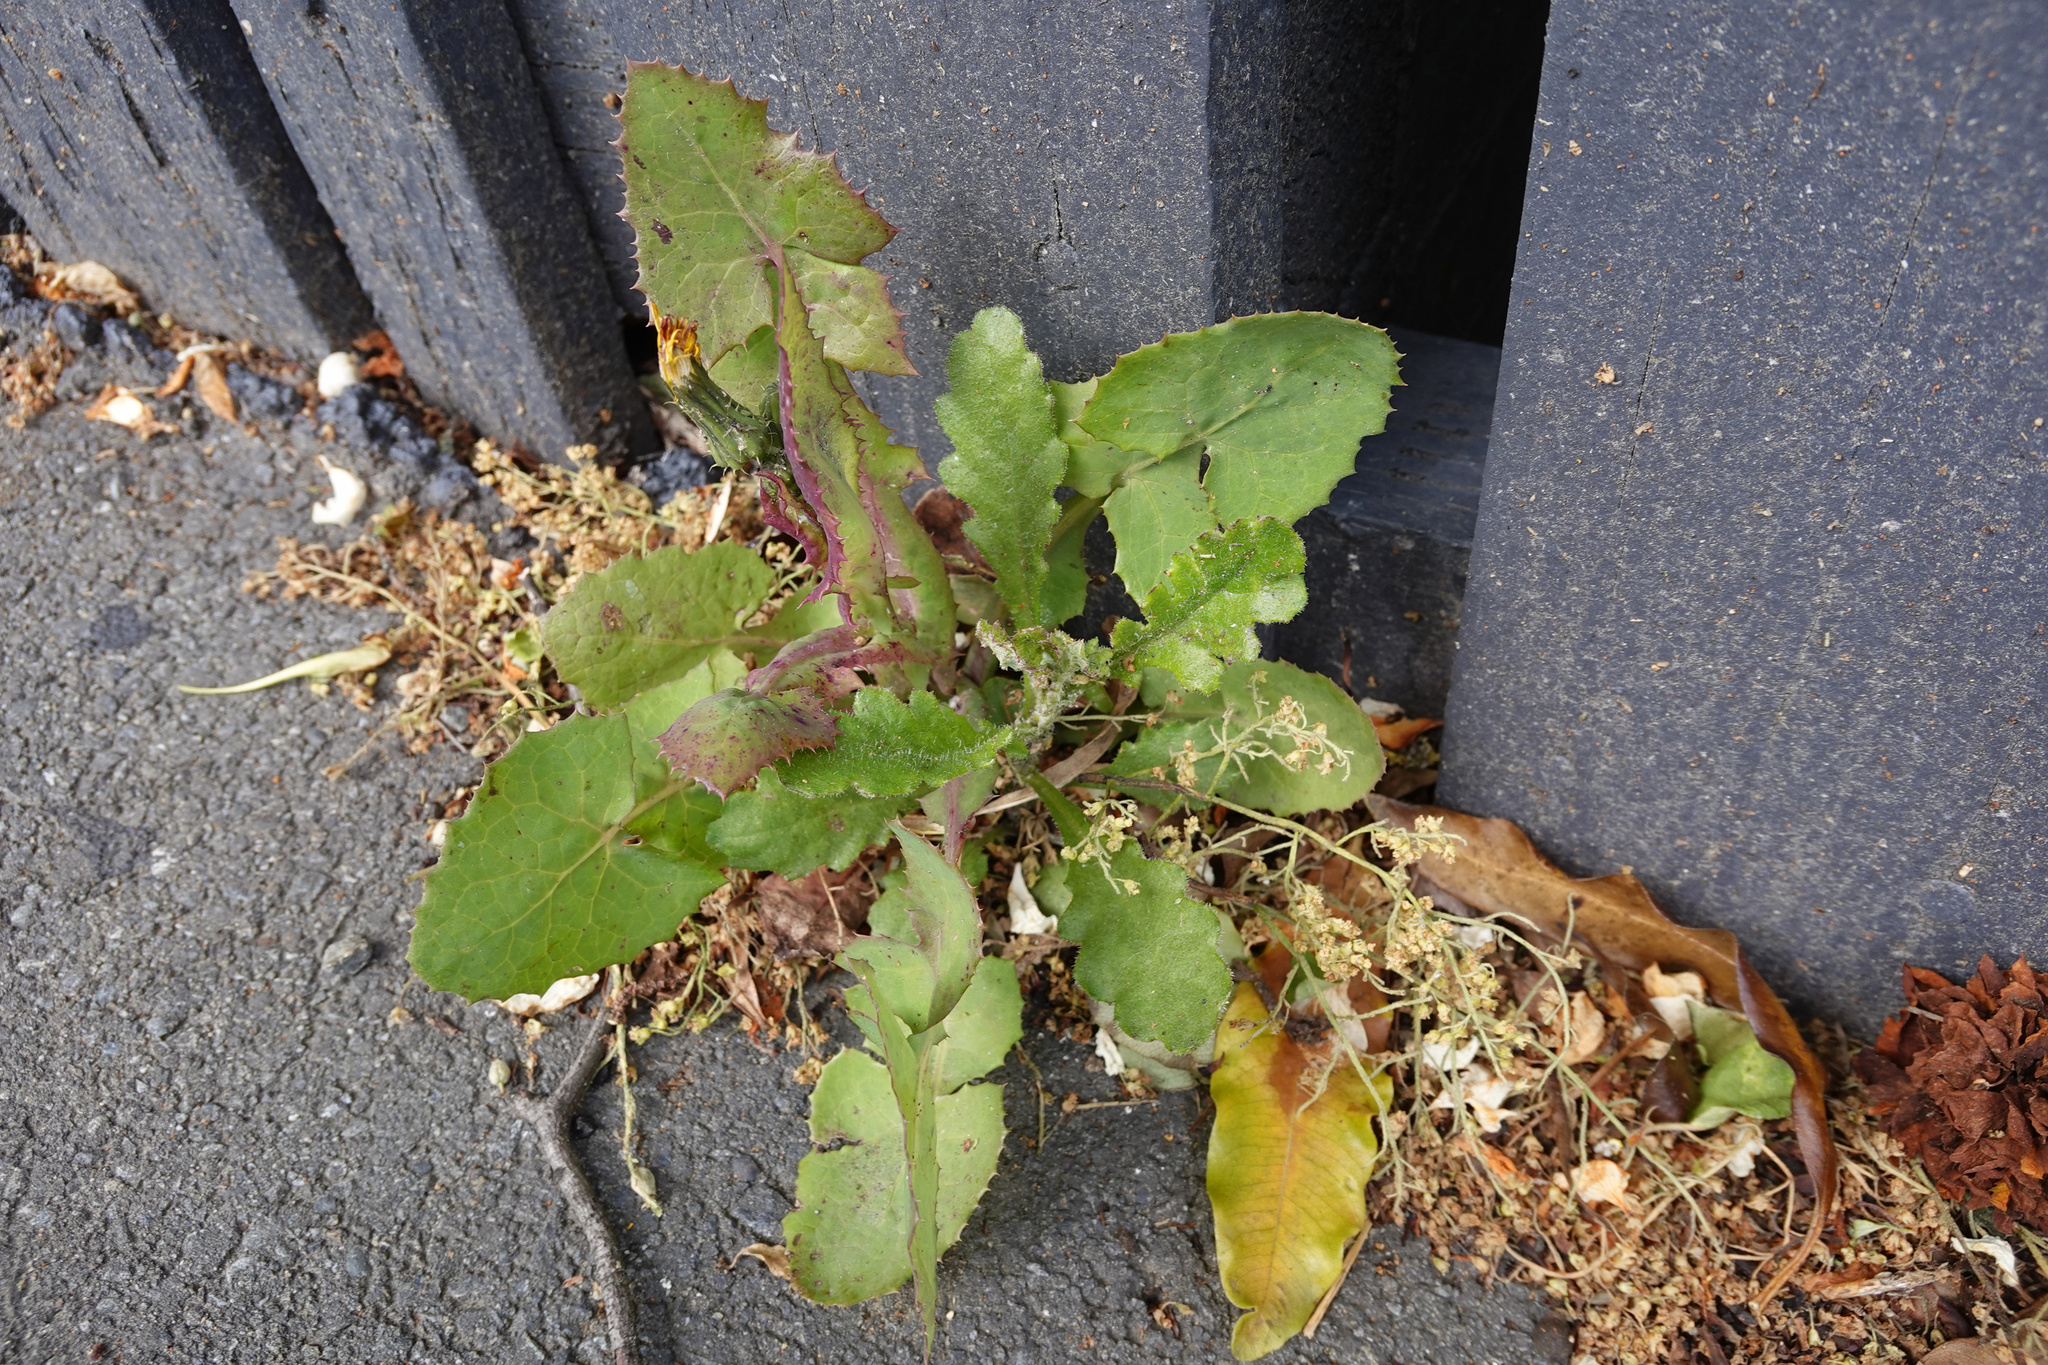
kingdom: Plantae
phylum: Tracheophyta
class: Magnoliopsida
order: Asterales
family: Asteraceae
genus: Senecio
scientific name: Senecio glomeratus
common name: Cutleaf burnweed
